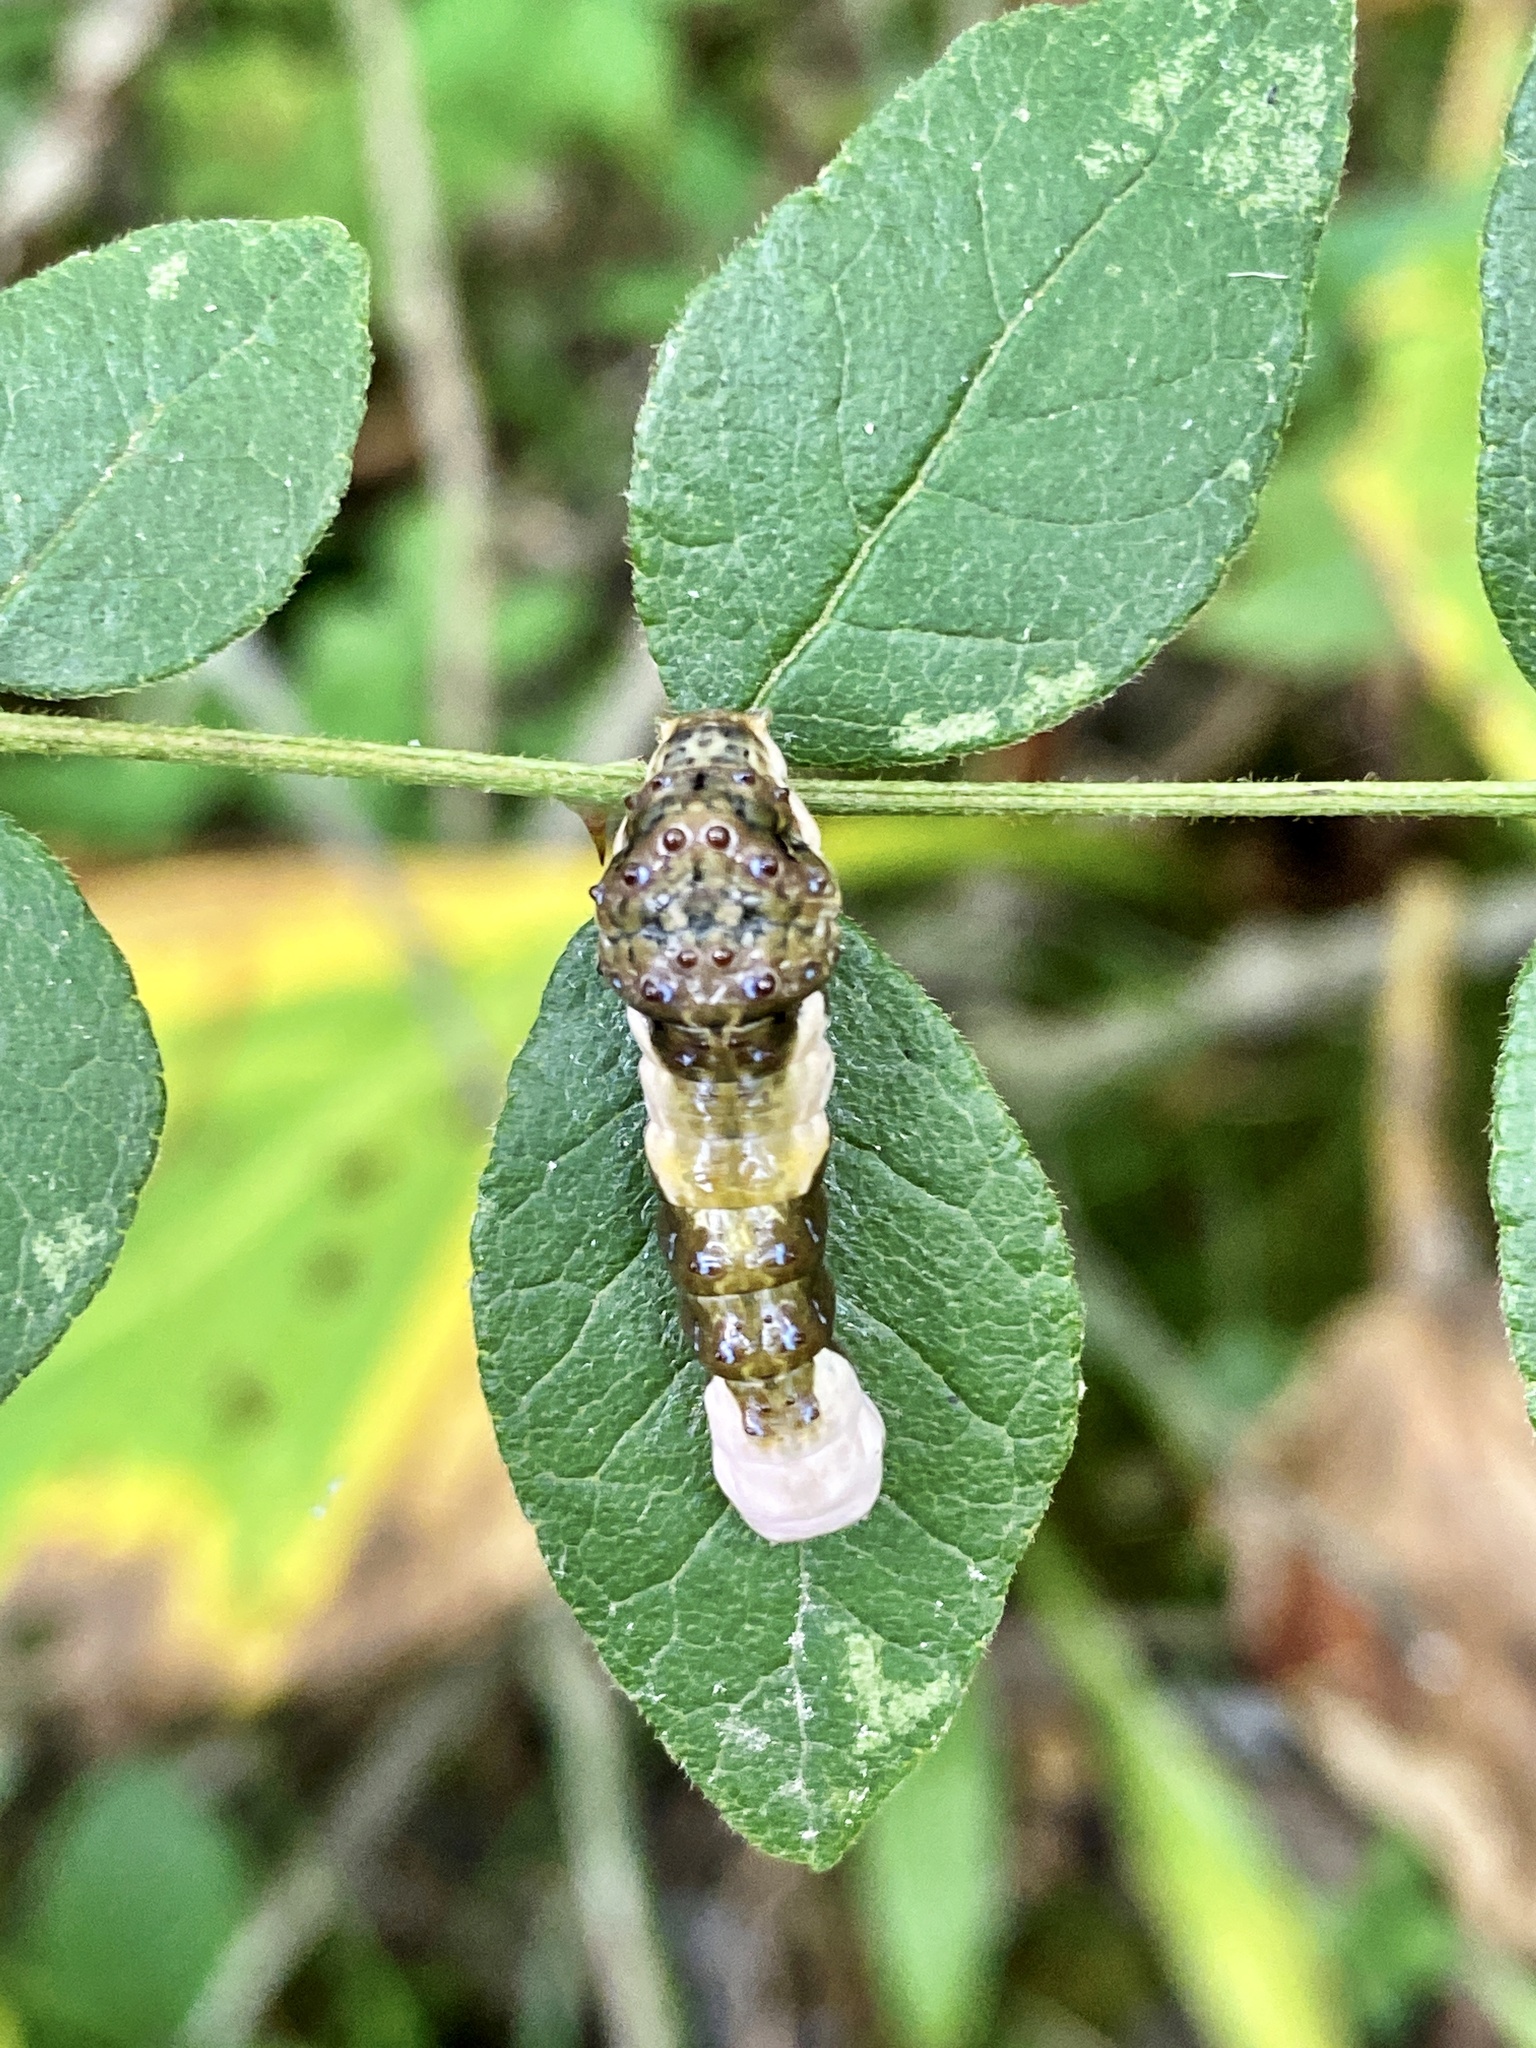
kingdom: Animalia
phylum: Arthropoda
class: Insecta
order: Lepidoptera
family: Papilionidae
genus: Papilio
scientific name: Papilio cresphontes
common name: Giant swallowtail
